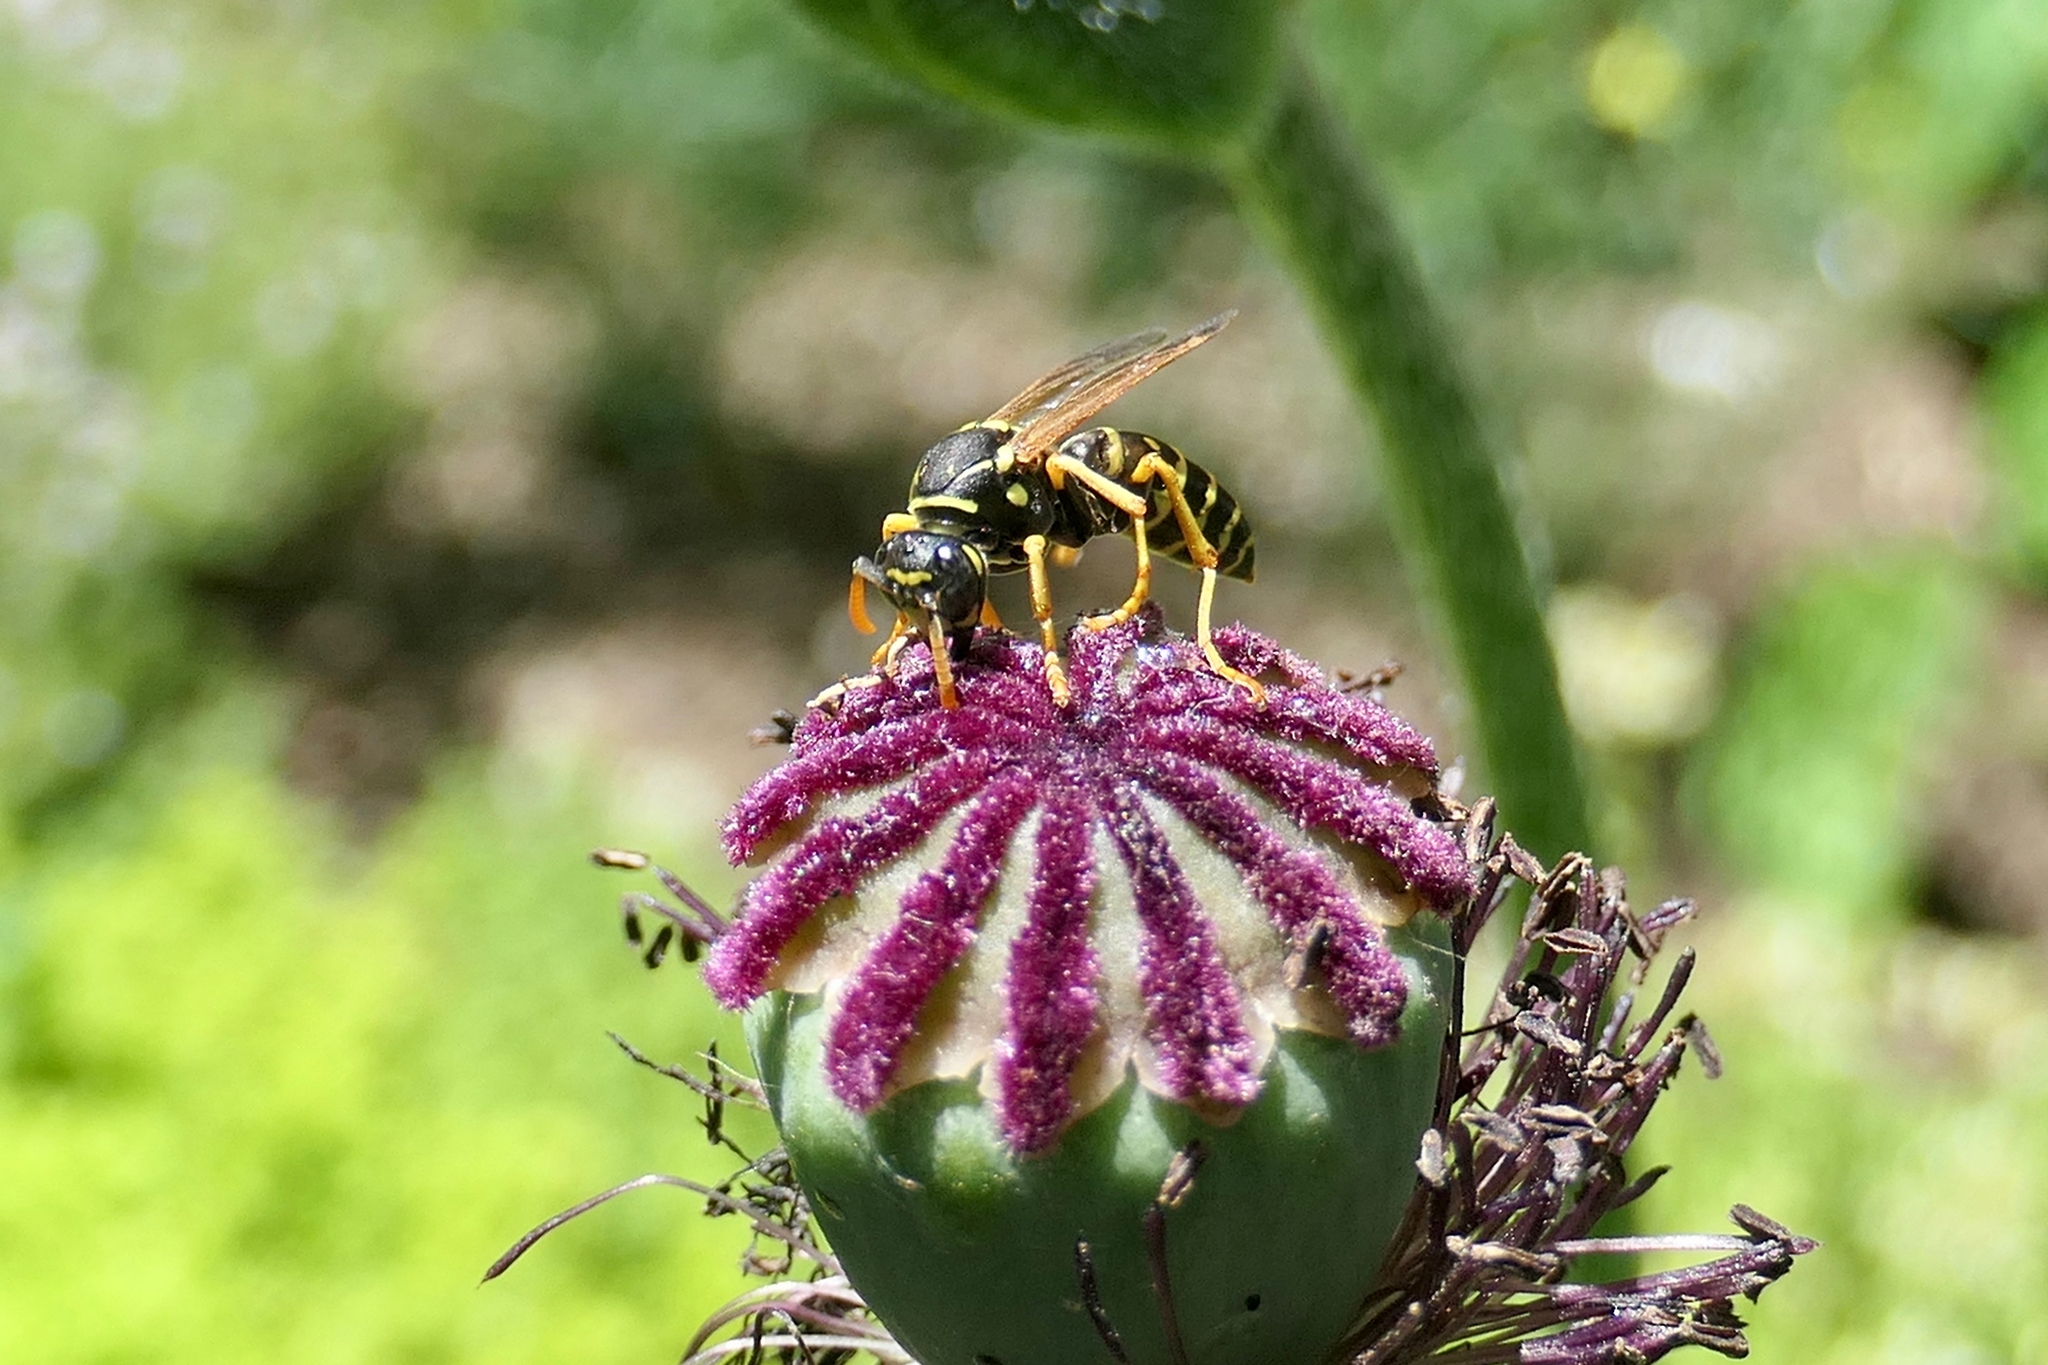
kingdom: Animalia
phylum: Arthropoda
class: Insecta
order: Hymenoptera
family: Eumenidae
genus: Polistes
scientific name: Polistes dominula
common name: Paper wasp
